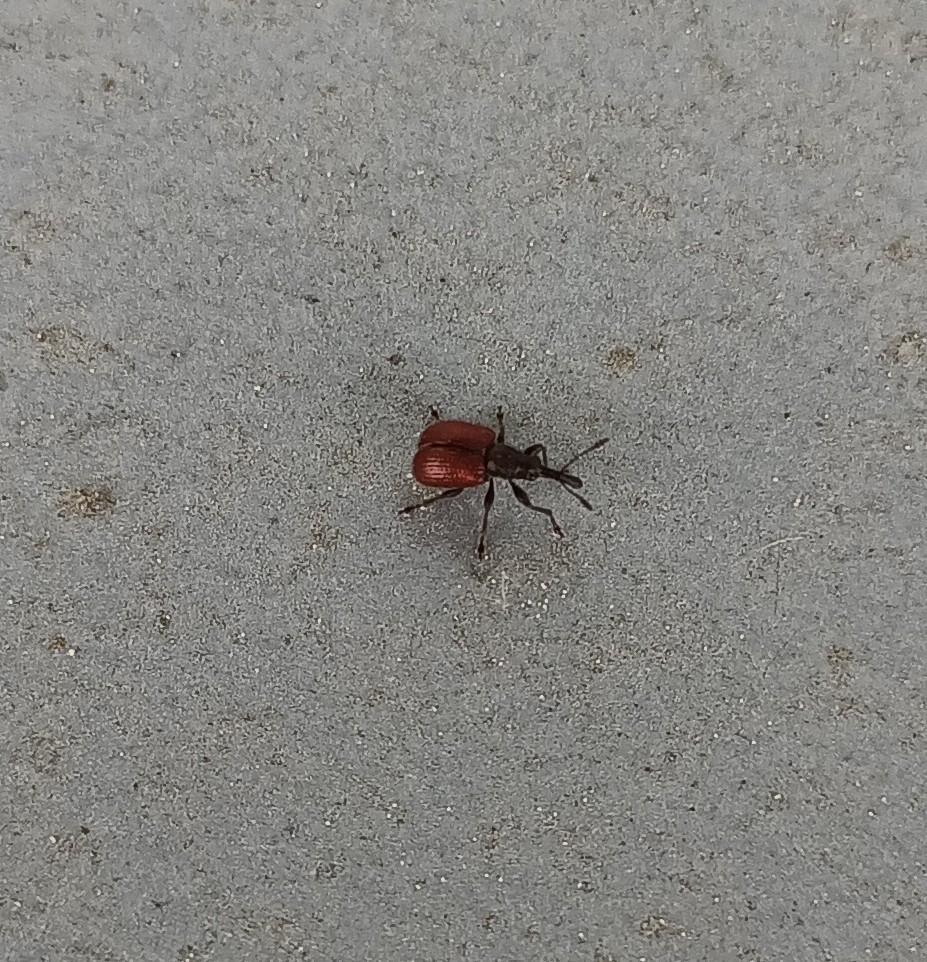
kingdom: Animalia
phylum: Arthropoda
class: Insecta
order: Coleoptera
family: Rhynchitidae
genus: Tatianaerhynchites
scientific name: Tatianaerhynchites aequatus
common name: Apple fruit rhynchites
